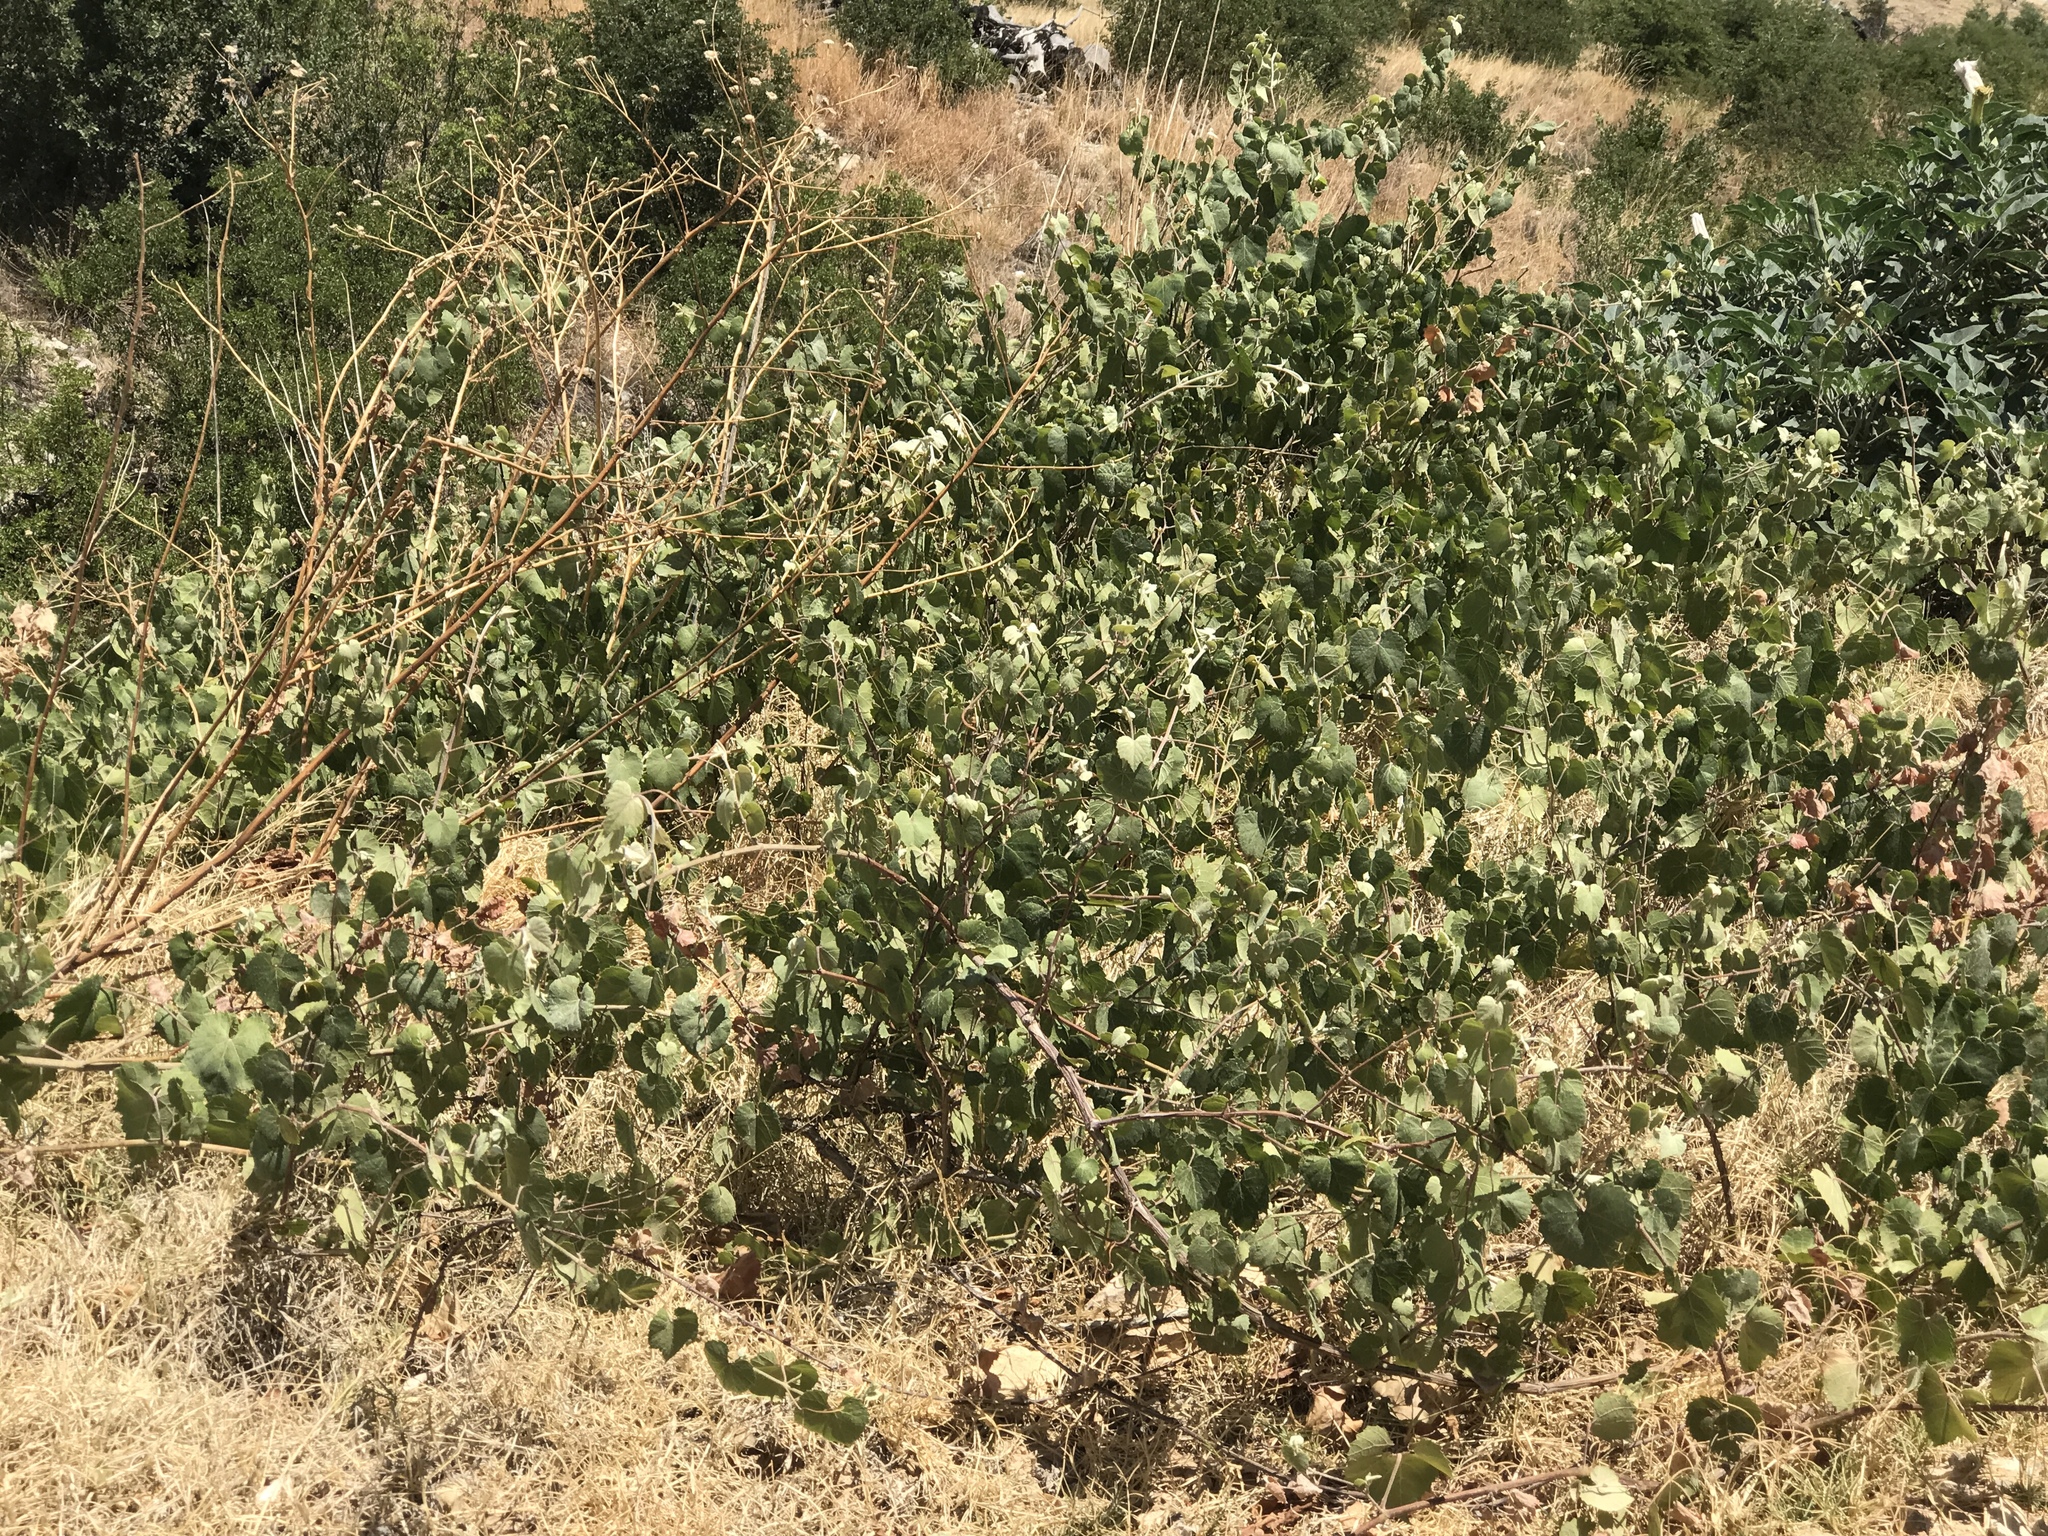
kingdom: Plantae
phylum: Tracheophyta
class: Magnoliopsida
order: Vitales
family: Vitaceae
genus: Vitis
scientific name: Vitis arizonica
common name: Canyon grape
